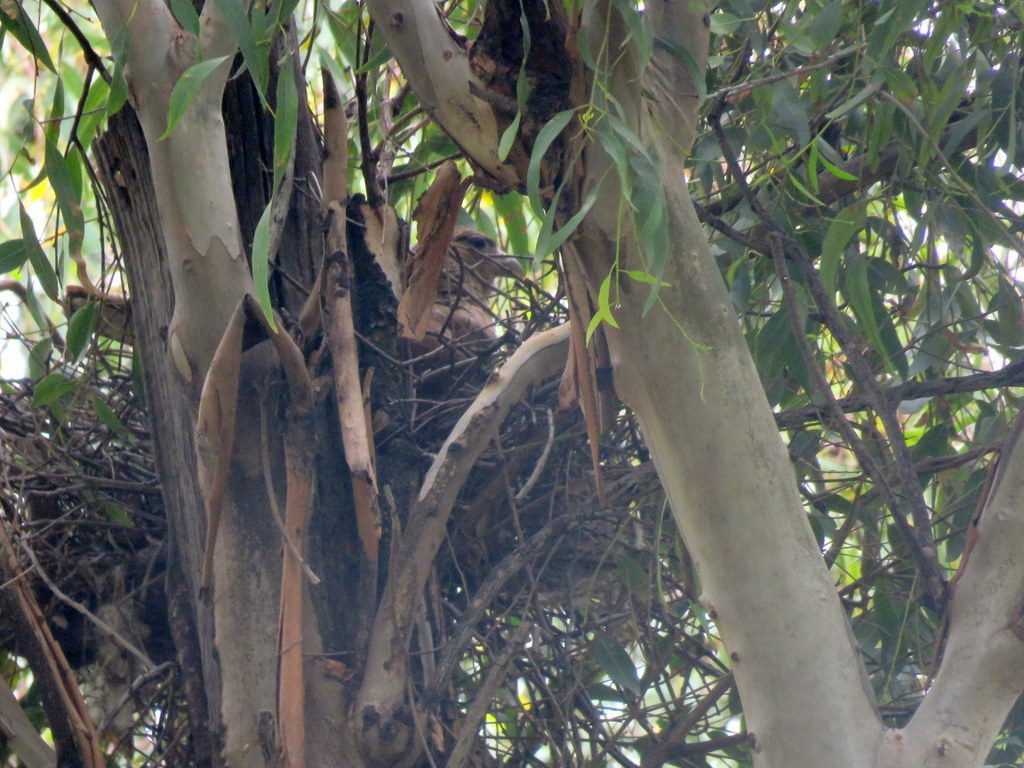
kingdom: Animalia
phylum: Chordata
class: Aves
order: Falconiformes
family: Falconidae
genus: Daptrius
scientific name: Daptrius
